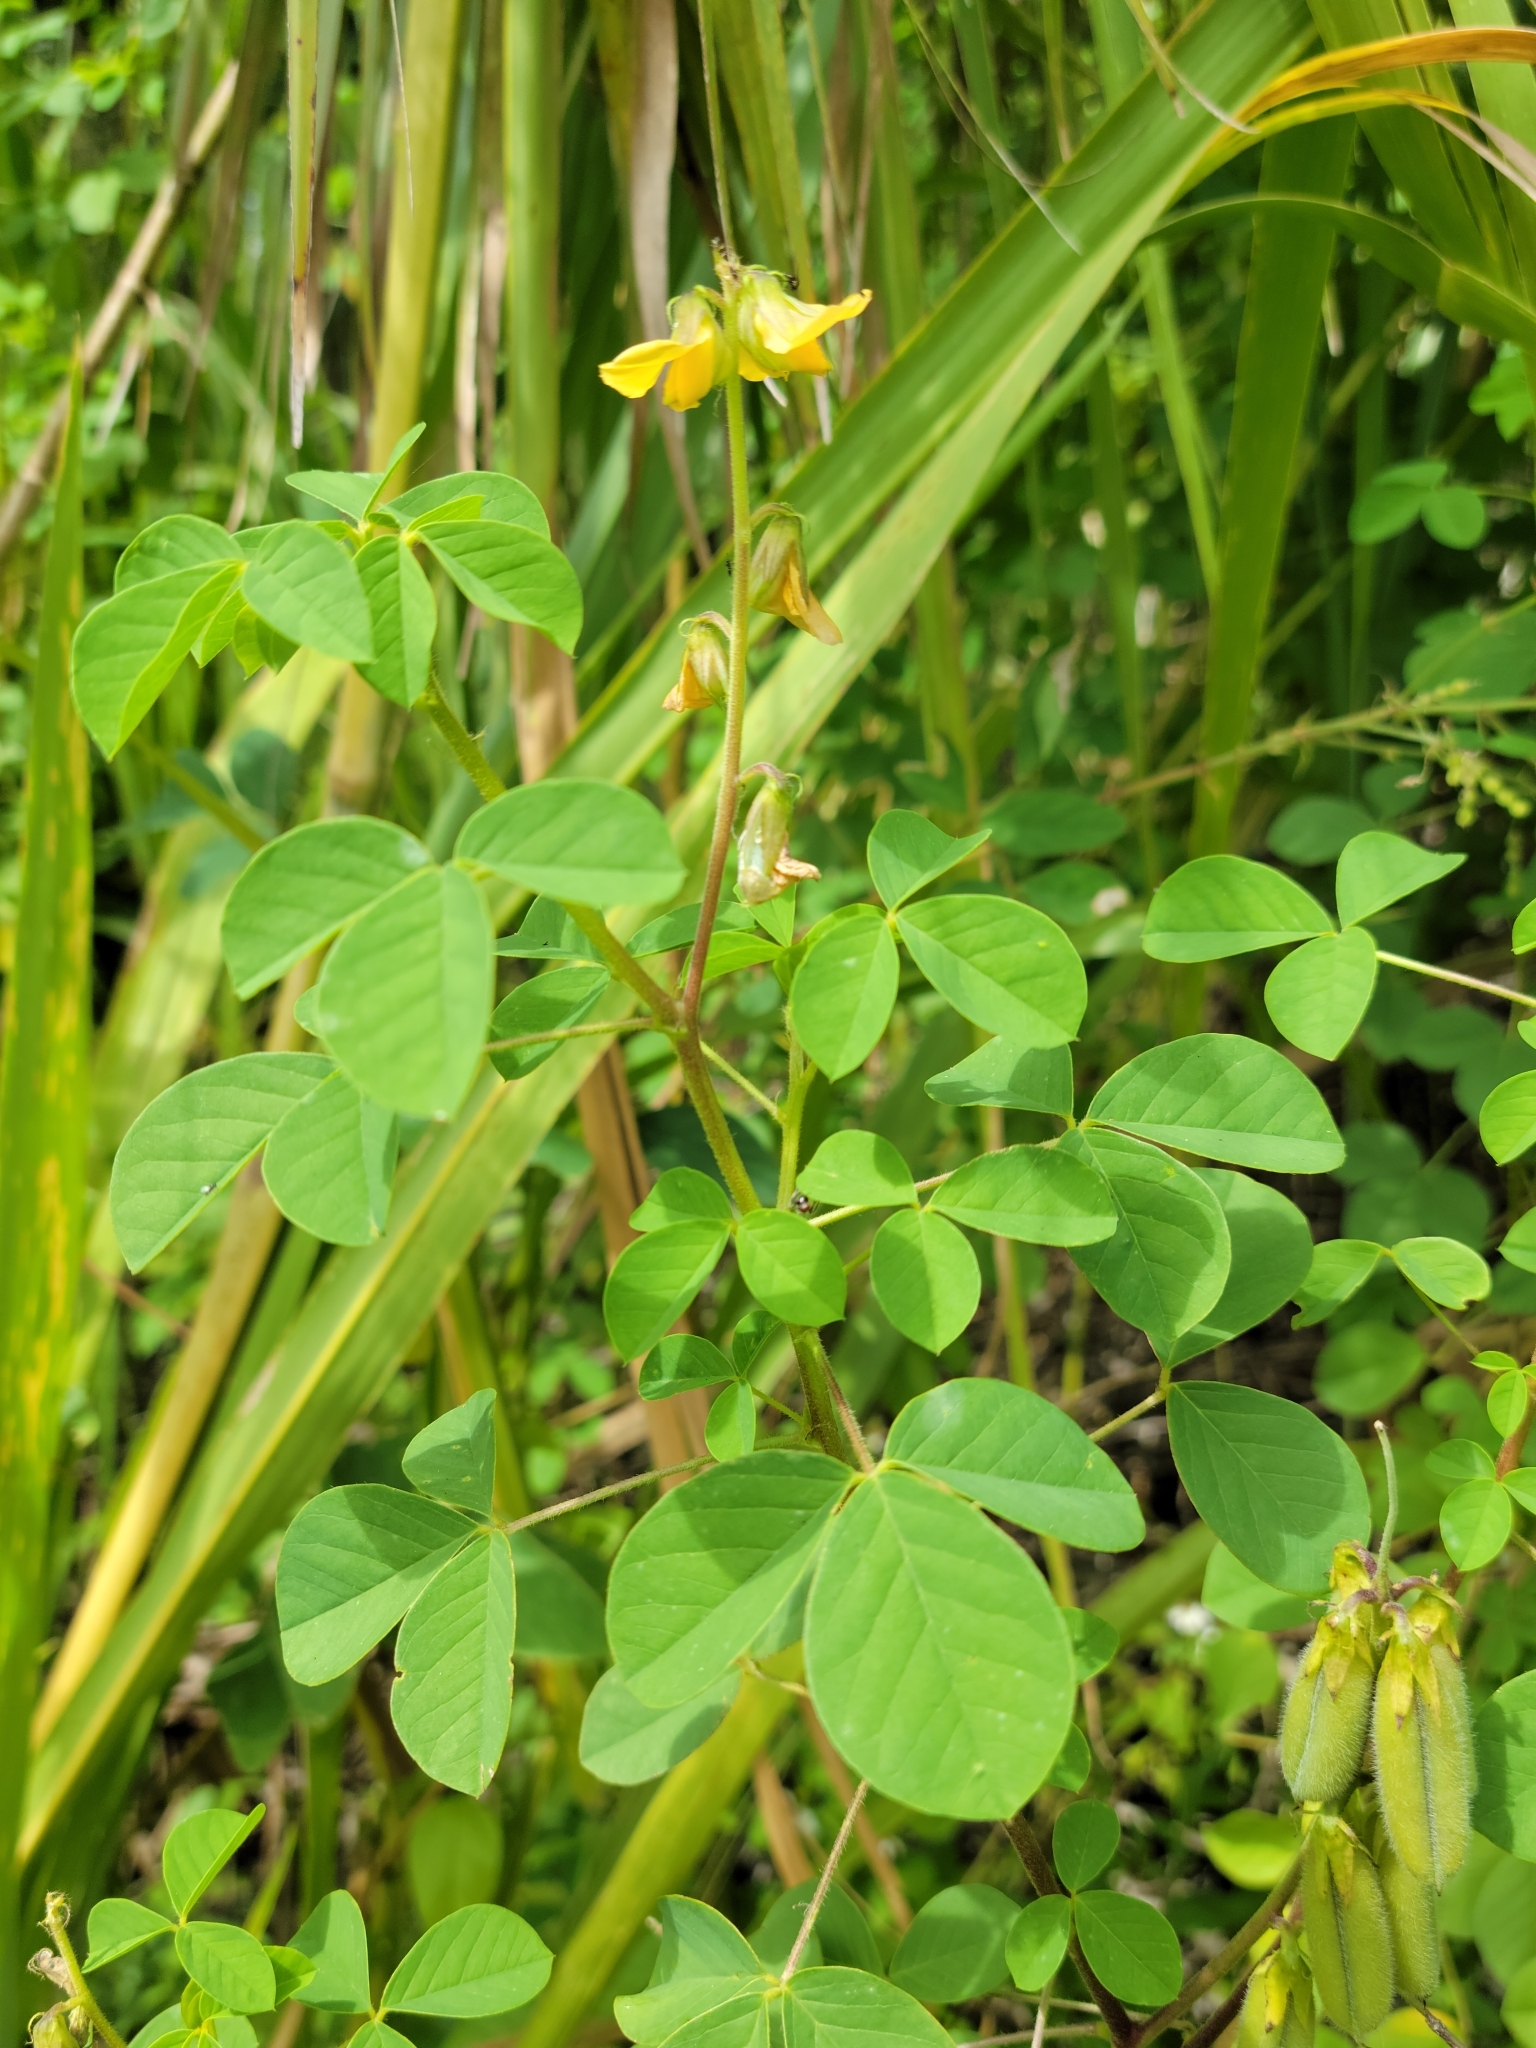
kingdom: Plantae
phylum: Tracheophyta
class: Magnoliopsida
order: Fabales
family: Fabaceae
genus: Crotalaria
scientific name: Crotalaria incana
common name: Shakeshake
